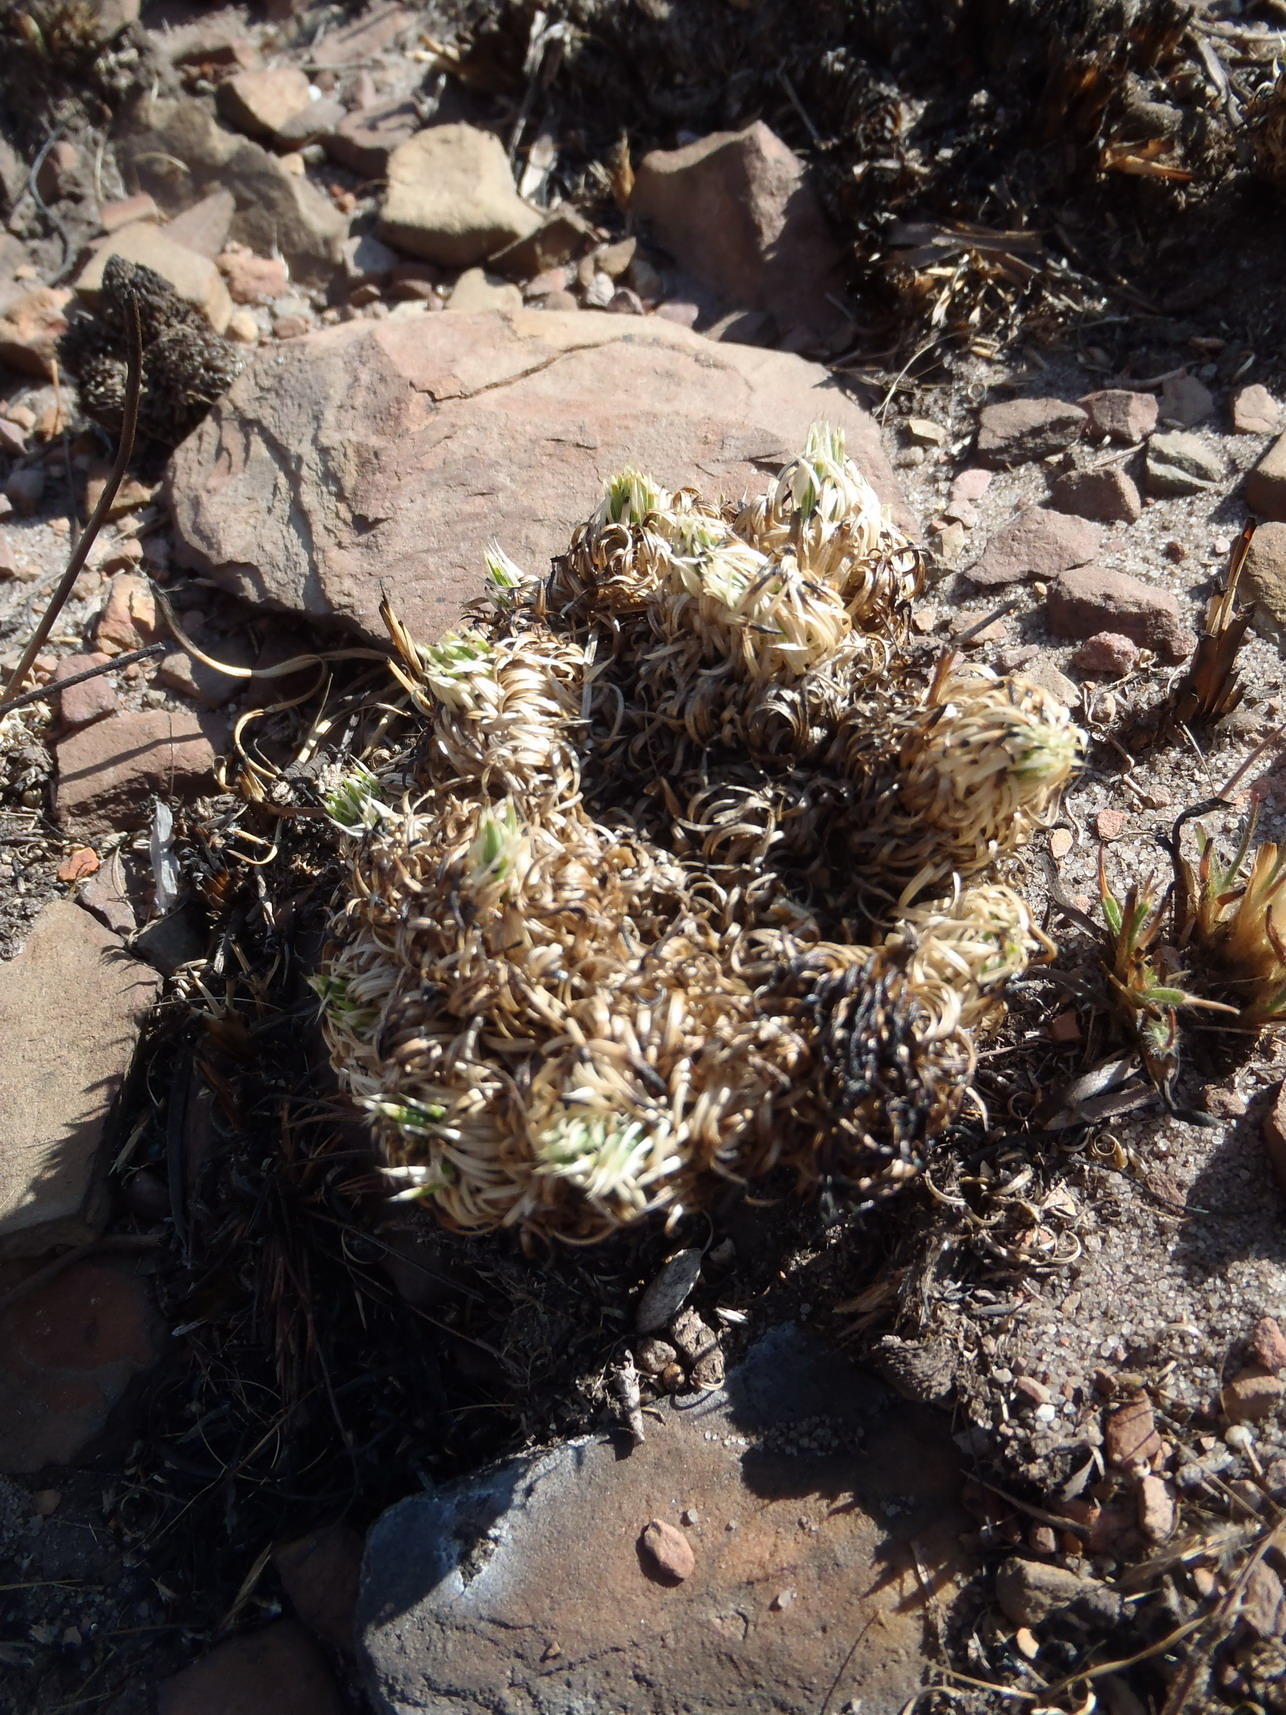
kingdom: Plantae
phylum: Tracheophyta
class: Magnoliopsida
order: Caryophyllales
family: Molluginaceae
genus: Psammotropha
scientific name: Psammotropha myriantha
